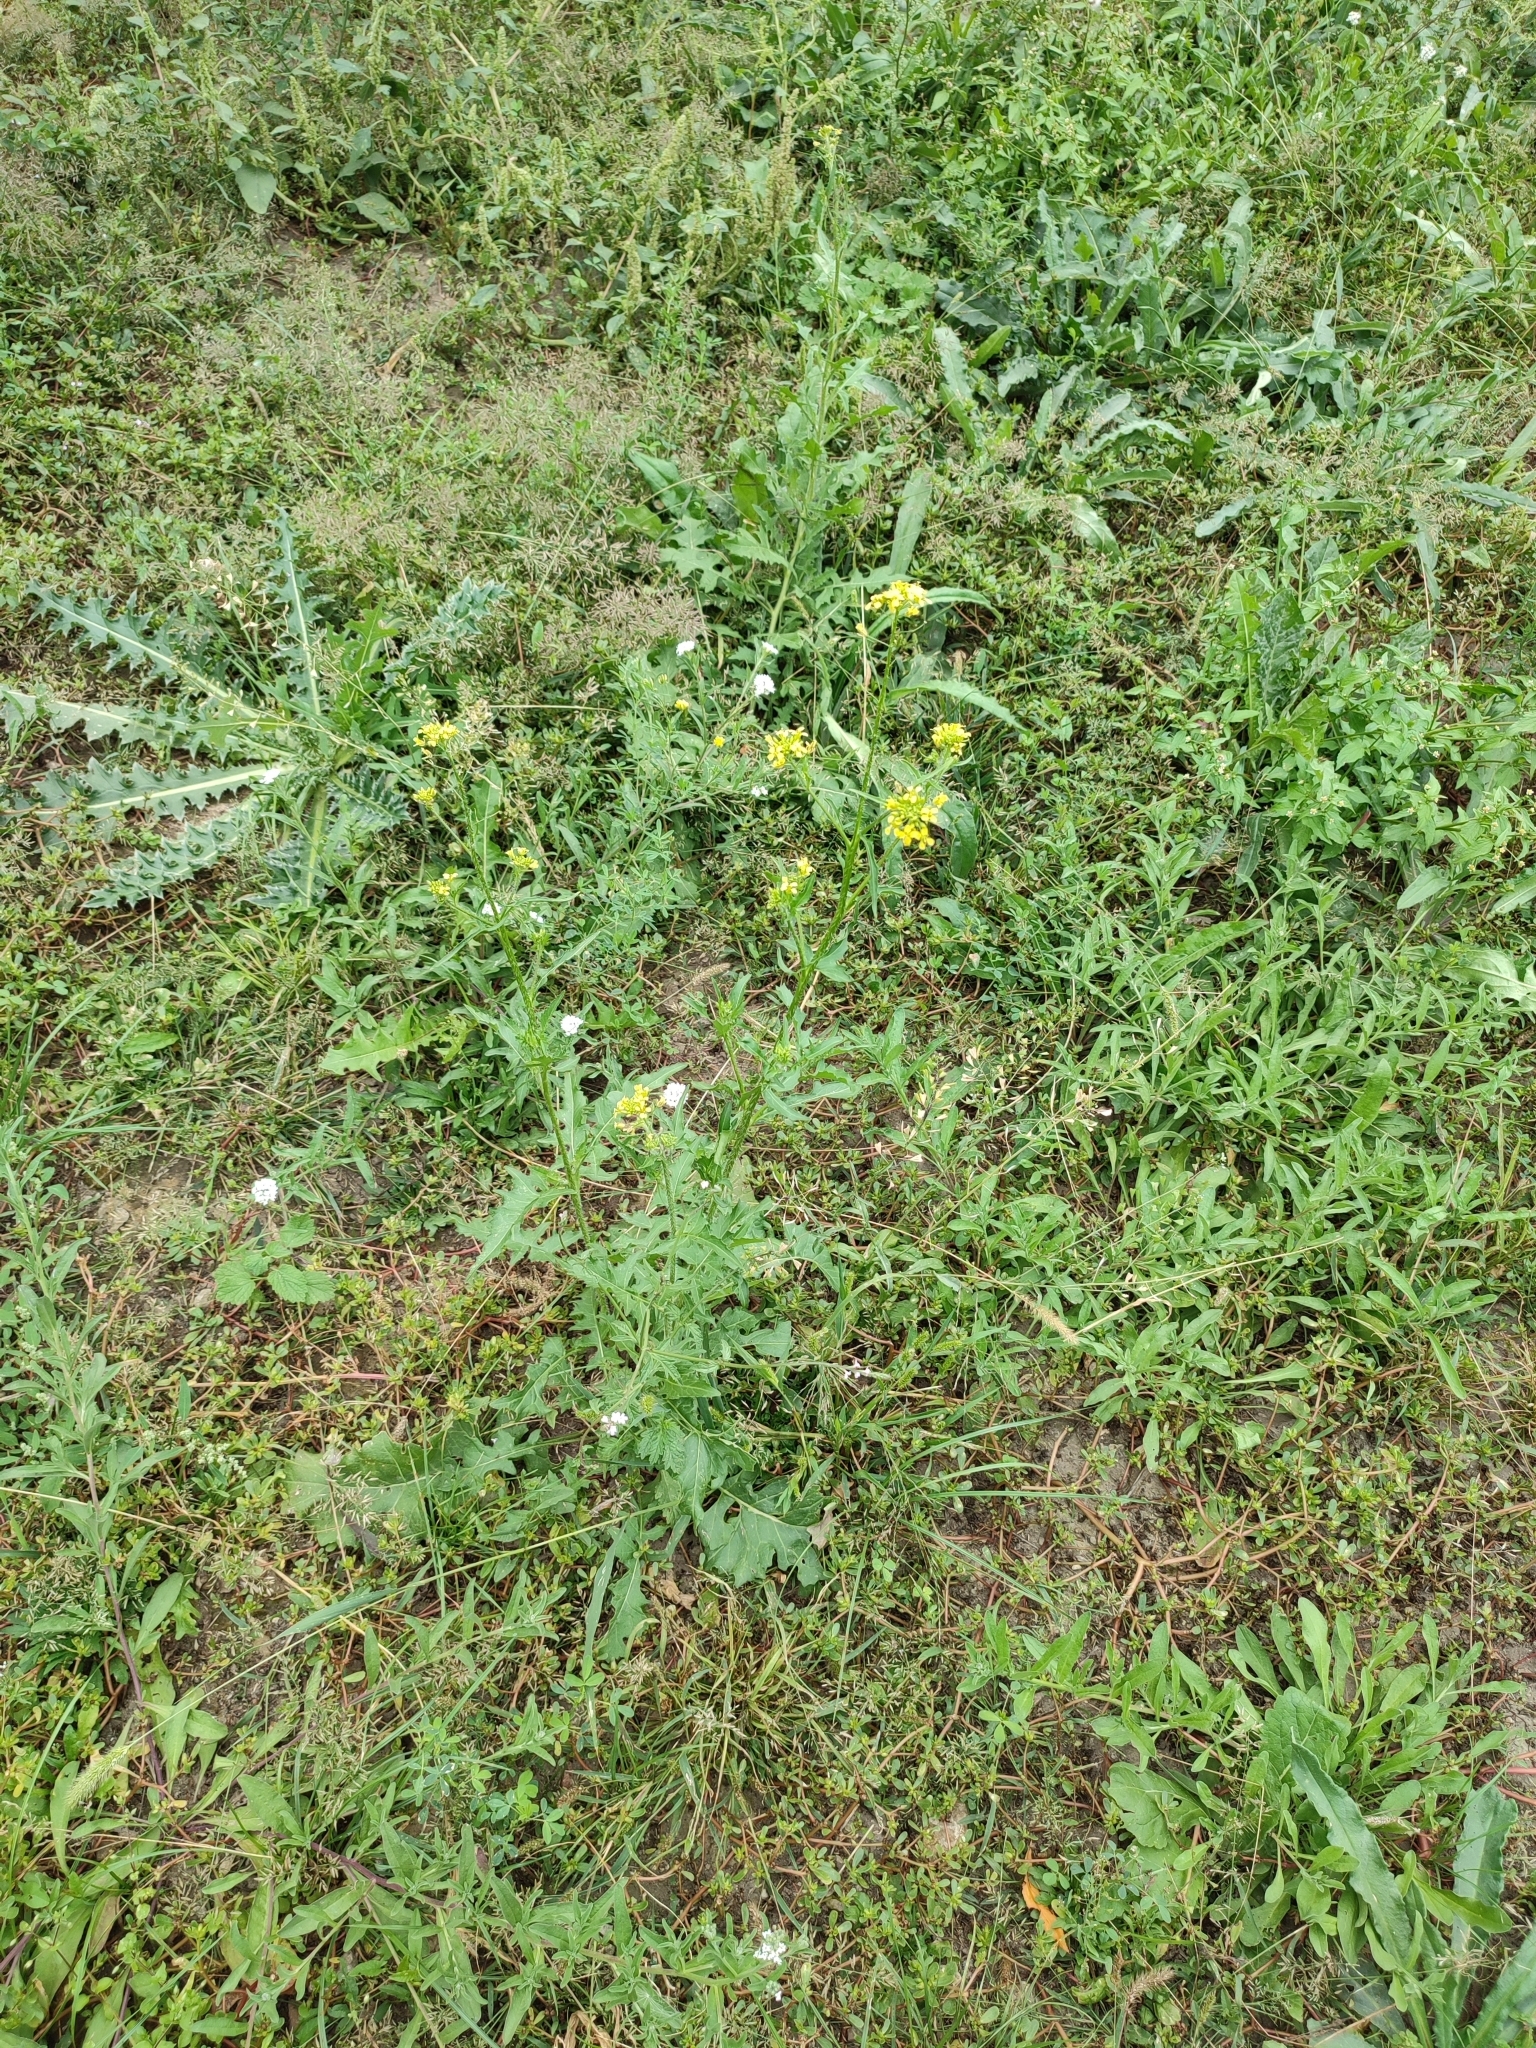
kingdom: Plantae
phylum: Tracheophyta
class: Magnoliopsida
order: Brassicales
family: Brassicaceae
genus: Sisymbrium
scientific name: Sisymbrium loeselii
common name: False london-rocket
